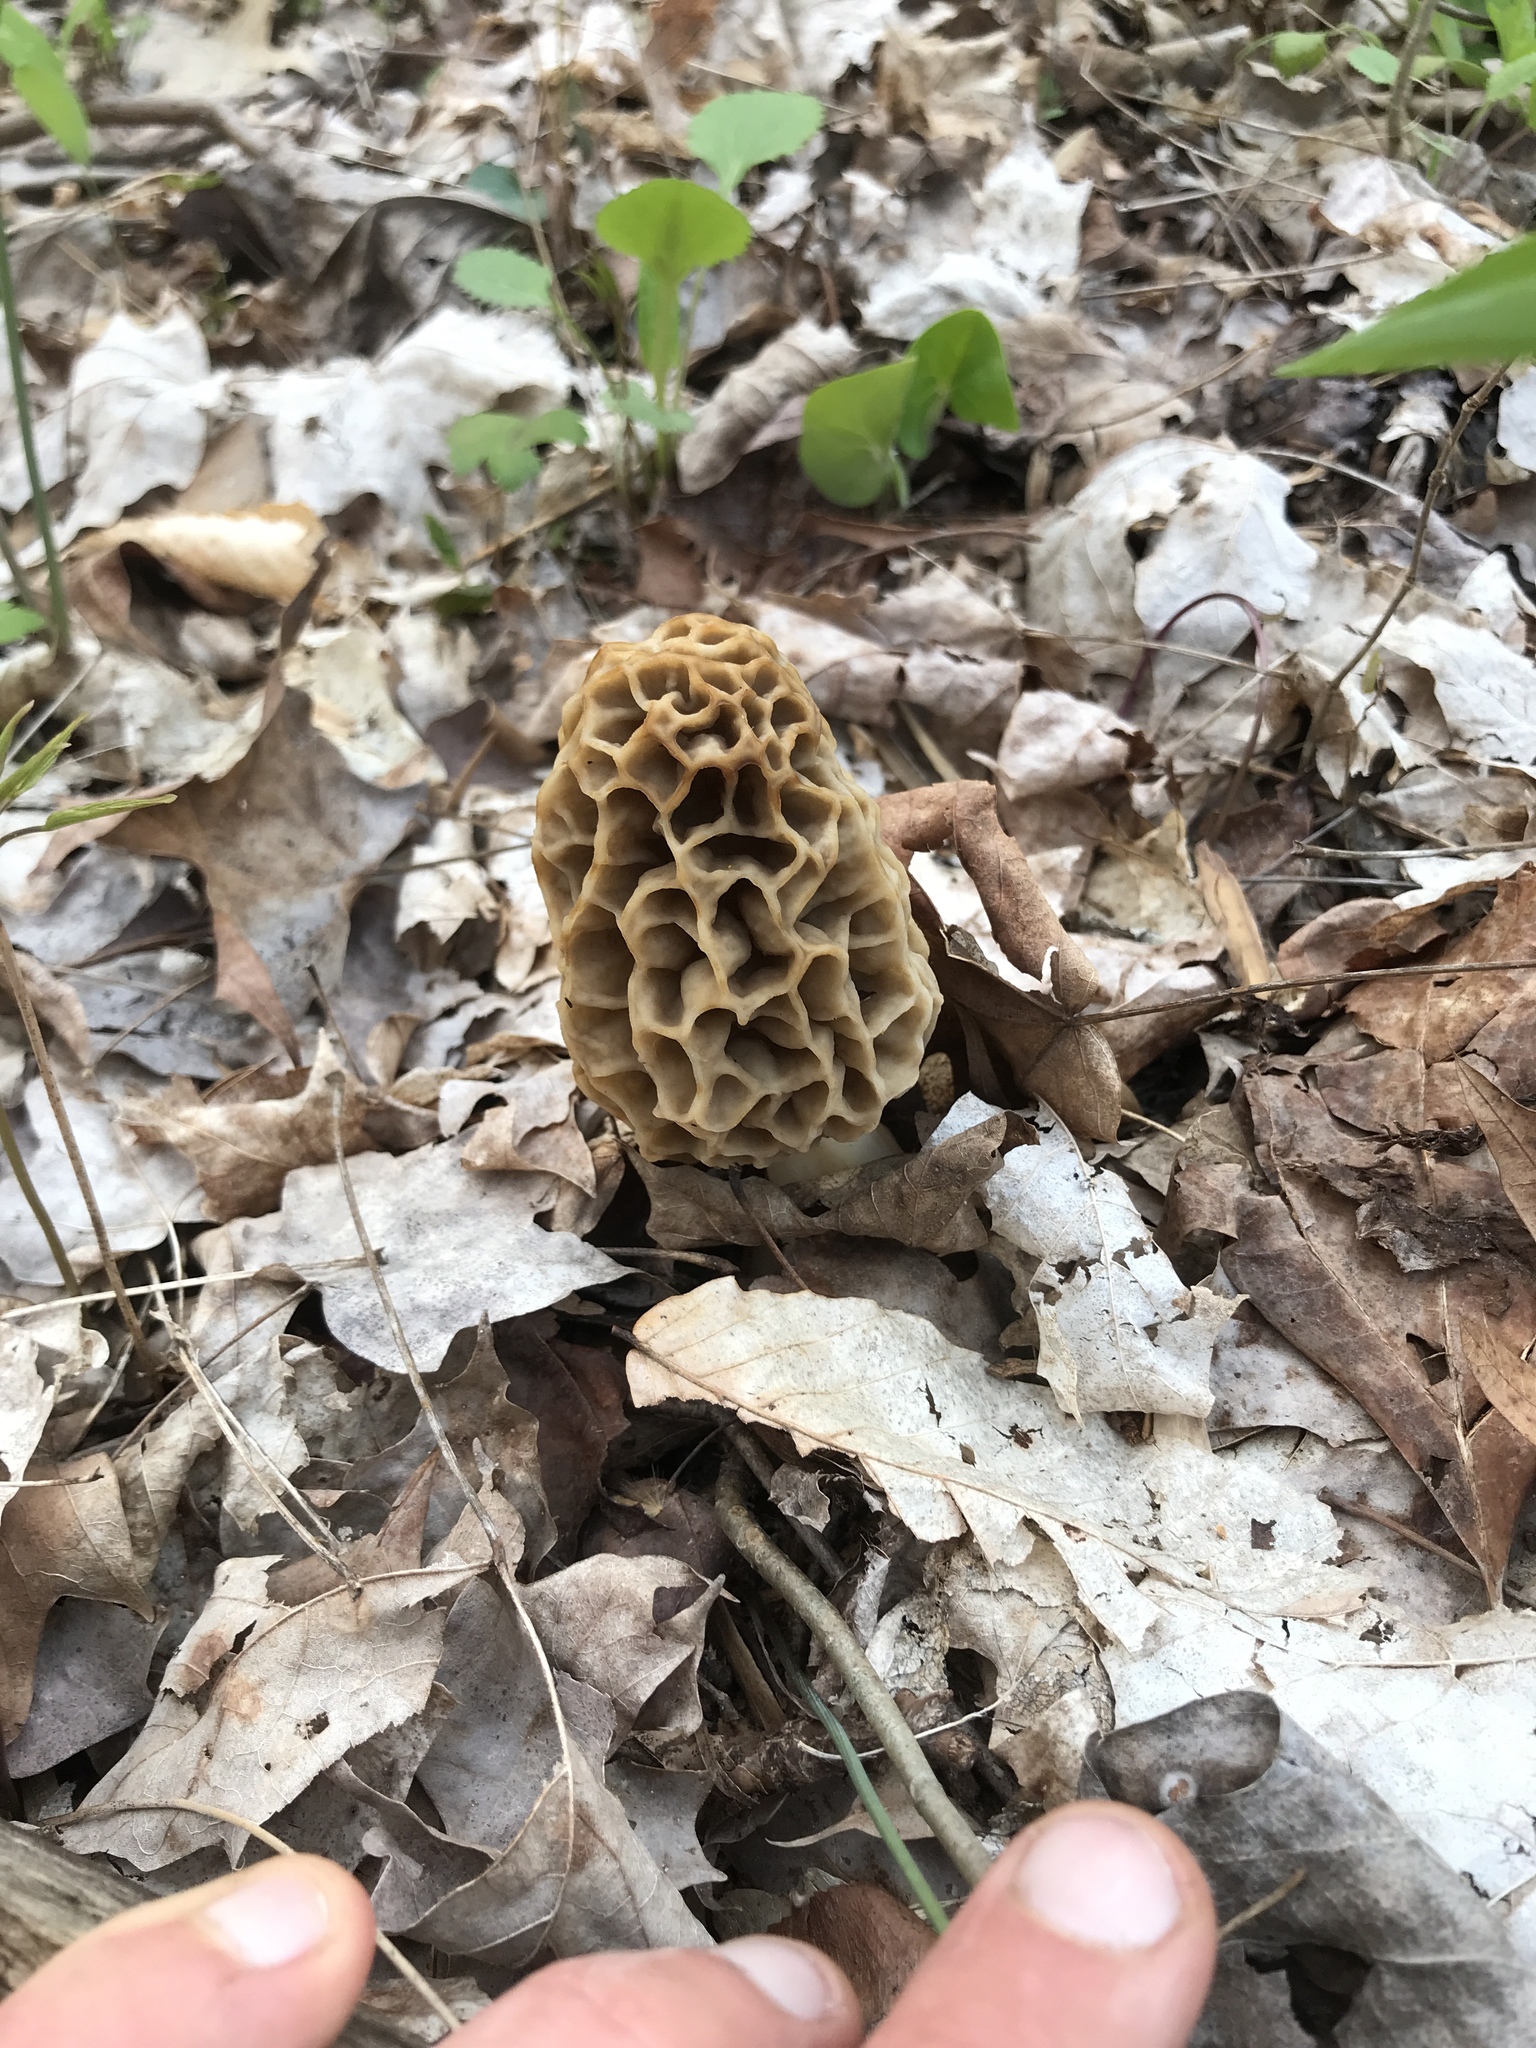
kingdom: Fungi
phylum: Ascomycota
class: Pezizomycetes
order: Pezizales
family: Morchellaceae
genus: Morchella
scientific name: Morchella americana
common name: White morel
